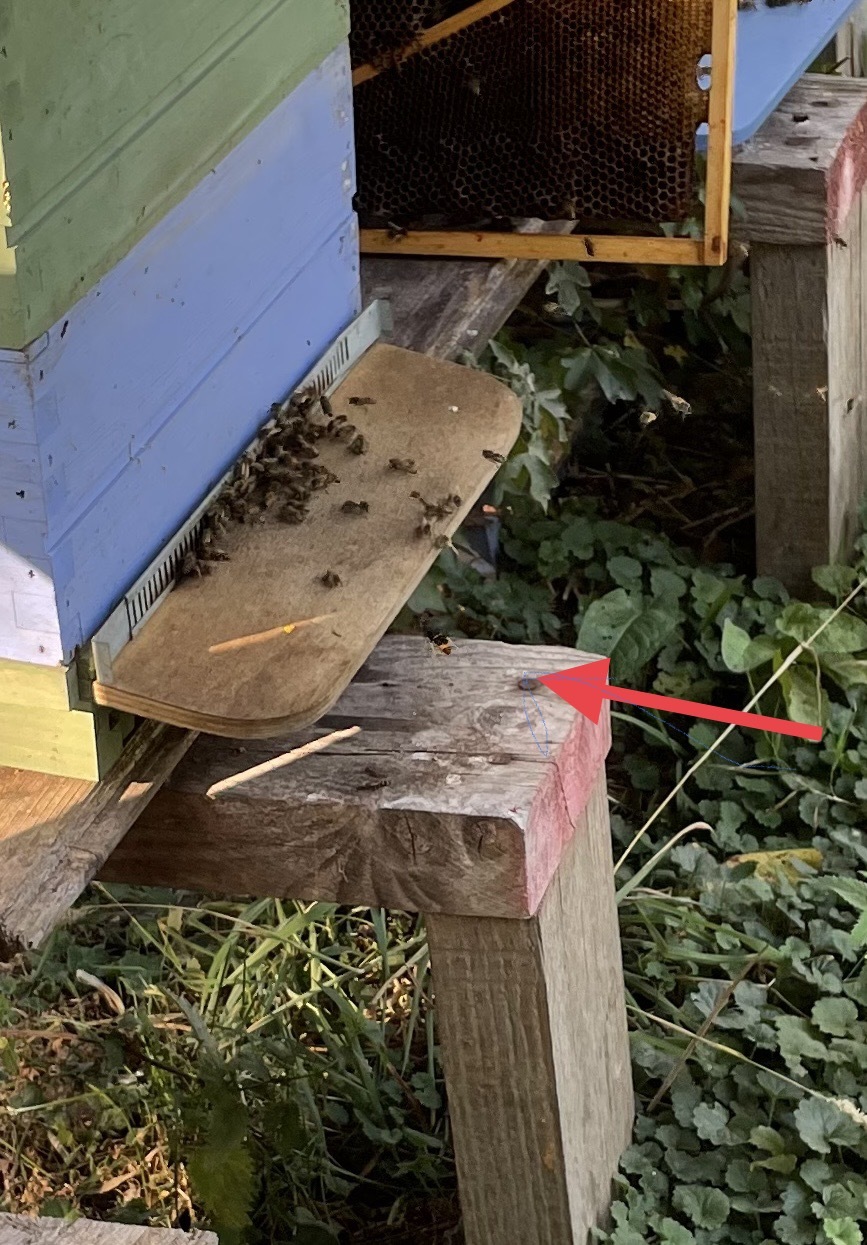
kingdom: Animalia
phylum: Arthropoda
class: Insecta
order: Hymenoptera
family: Vespidae
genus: Vespa
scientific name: Vespa velutina
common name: Asian hornet
